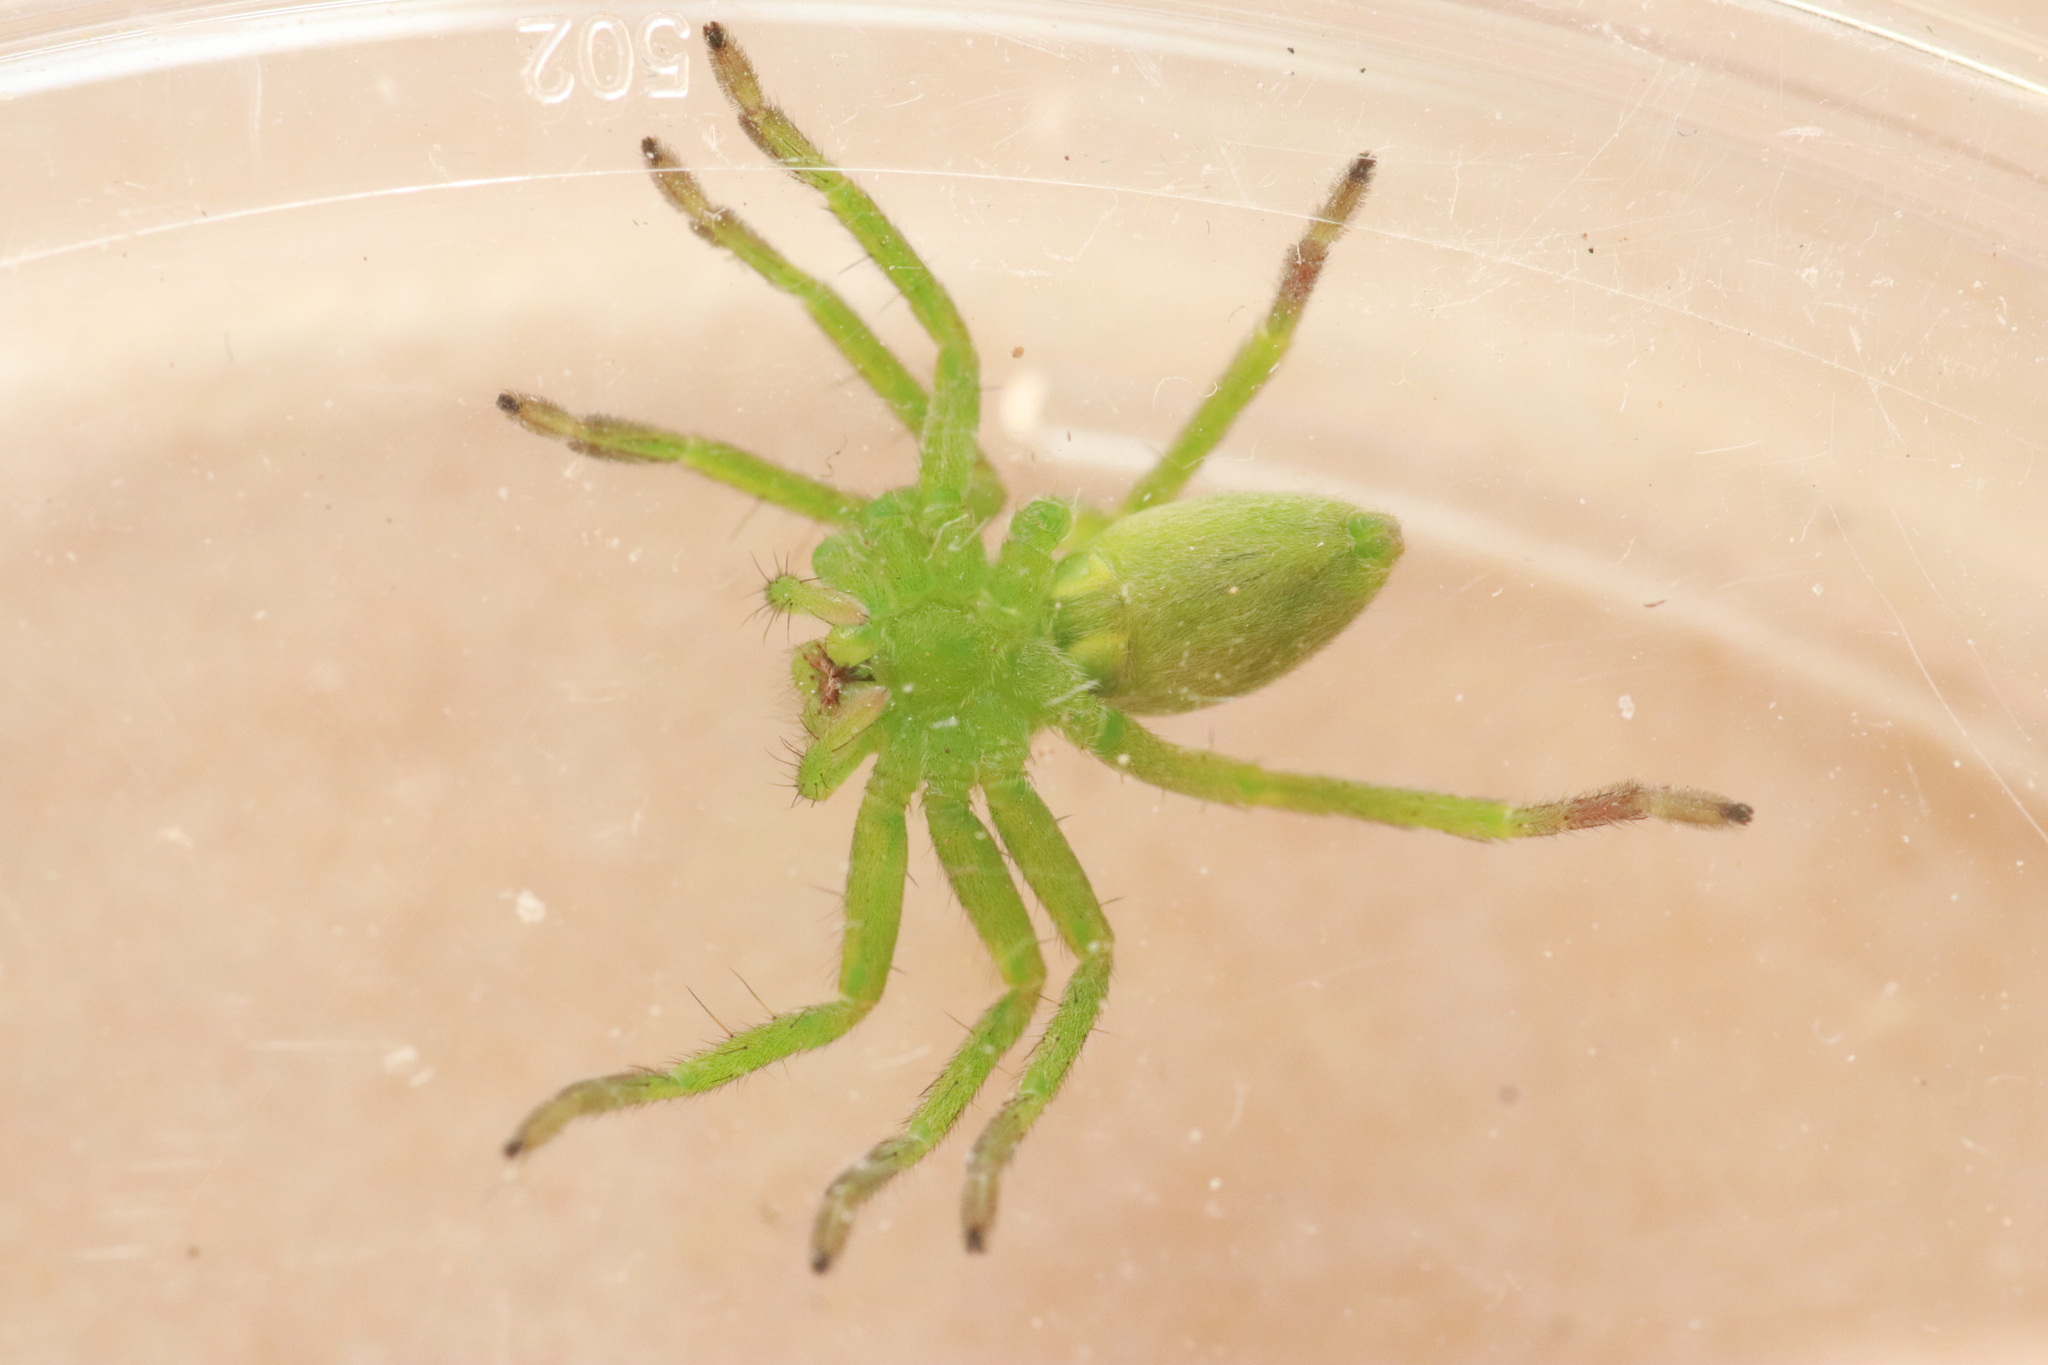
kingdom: Animalia
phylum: Arthropoda
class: Arachnida
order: Araneae
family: Sparassidae
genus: Micrommata
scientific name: Micrommata ligurina
